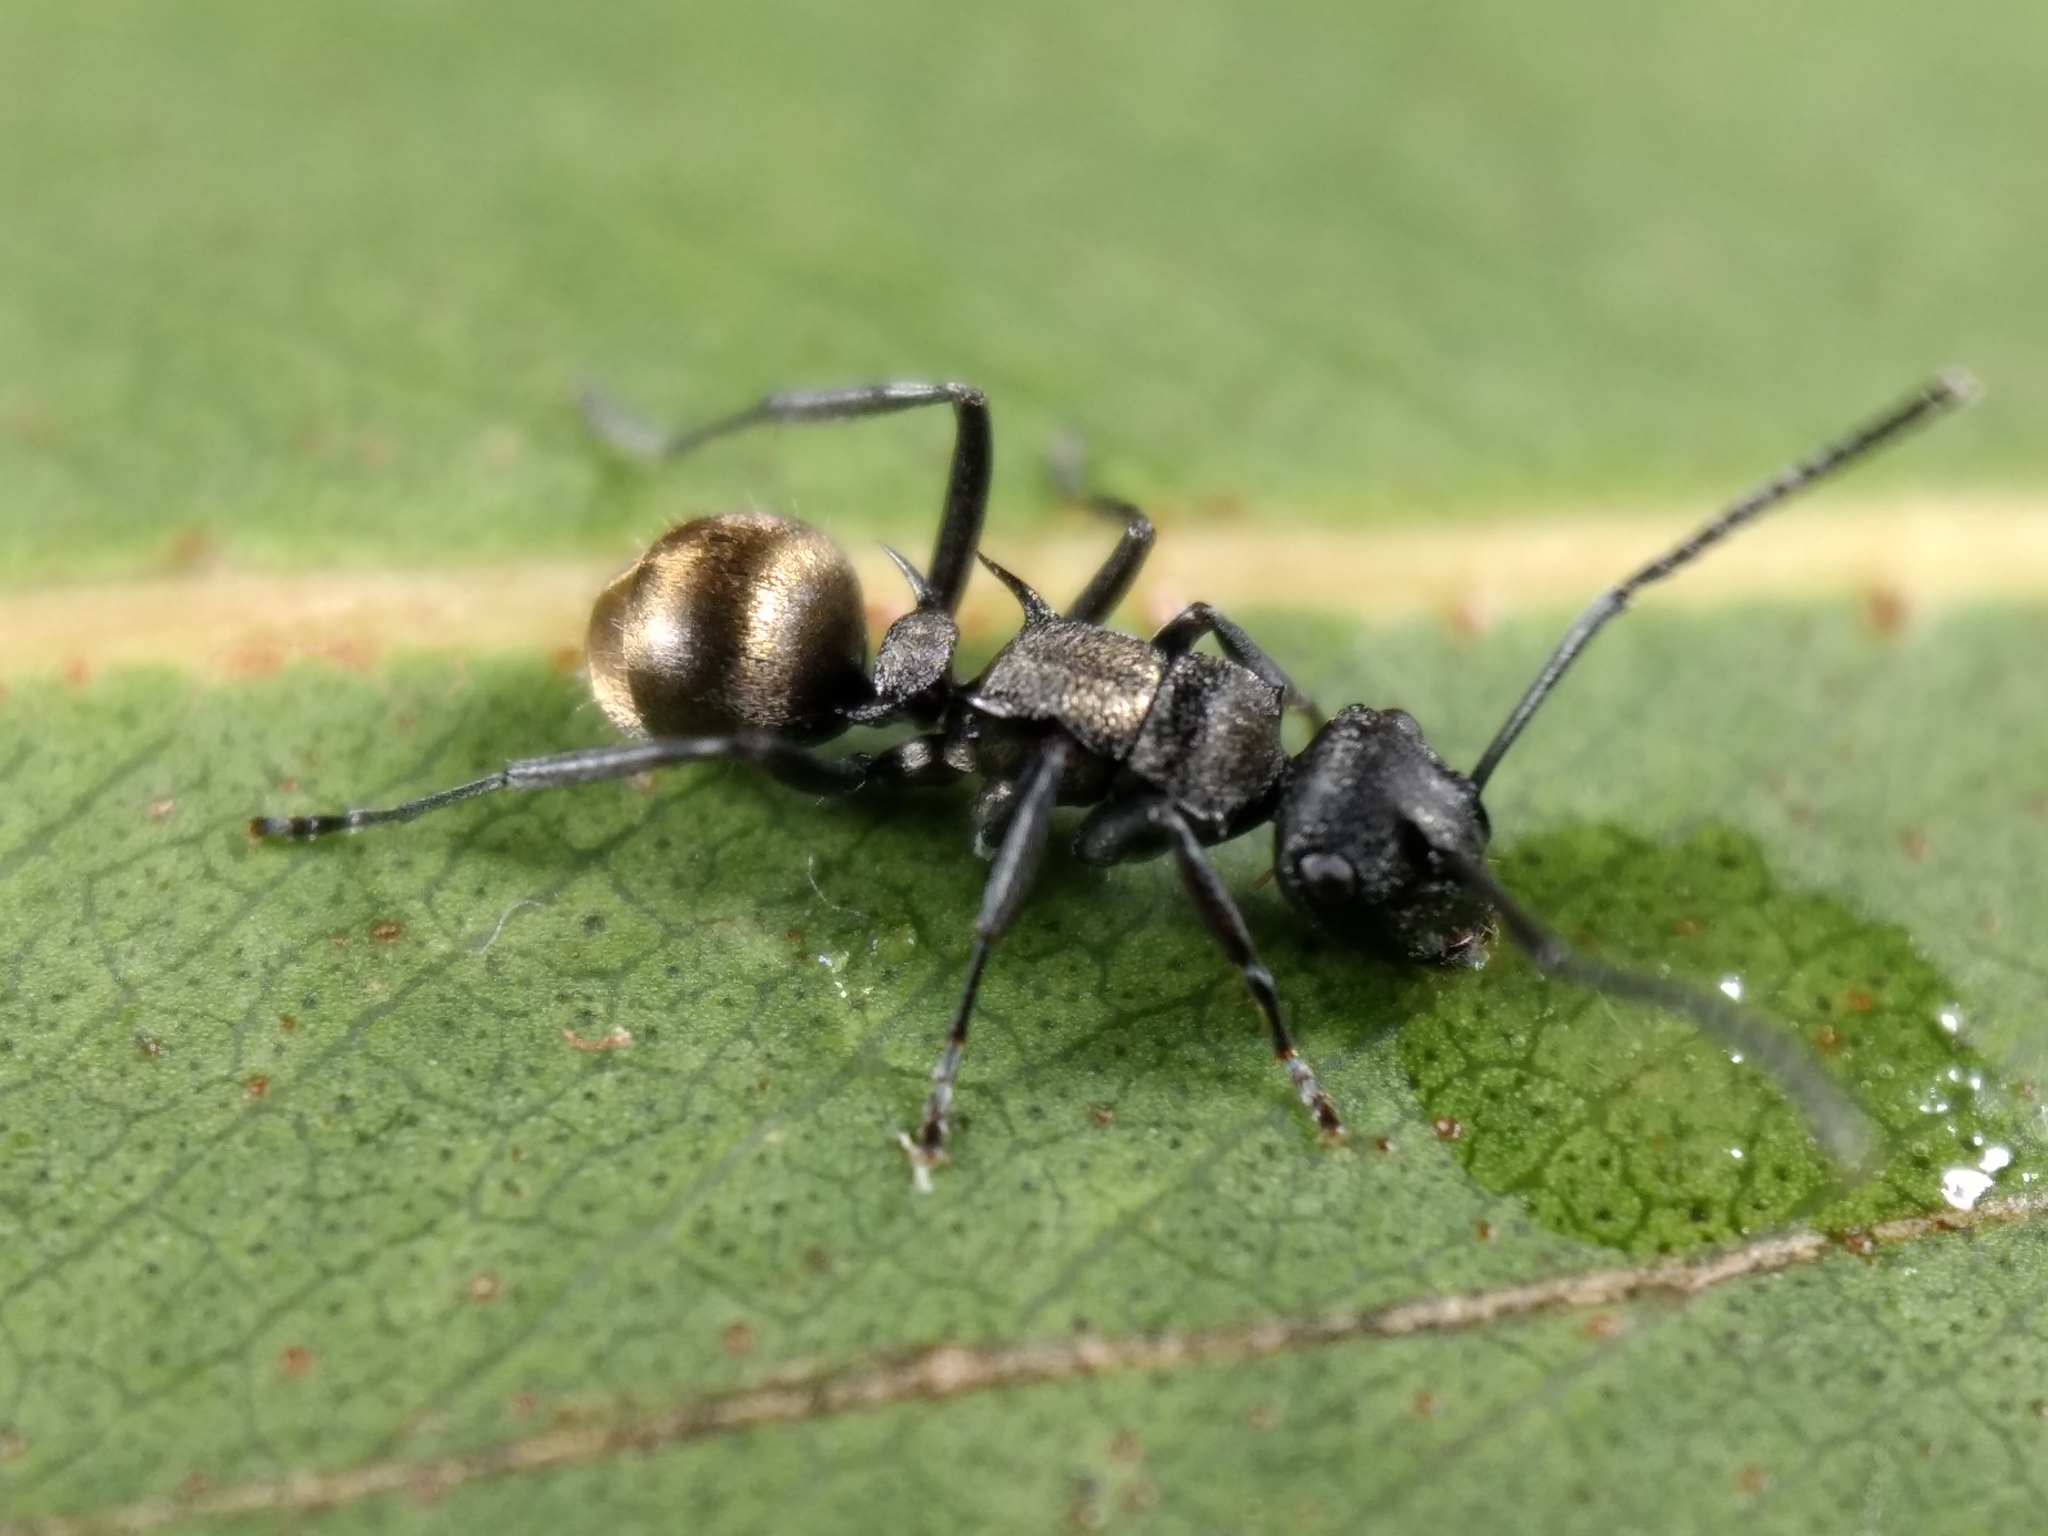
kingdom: Animalia
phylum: Arthropoda
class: Insecta
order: Hymenoptera
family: Formicidae
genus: Polyrhachis
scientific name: Polyrhachis mjobergi
